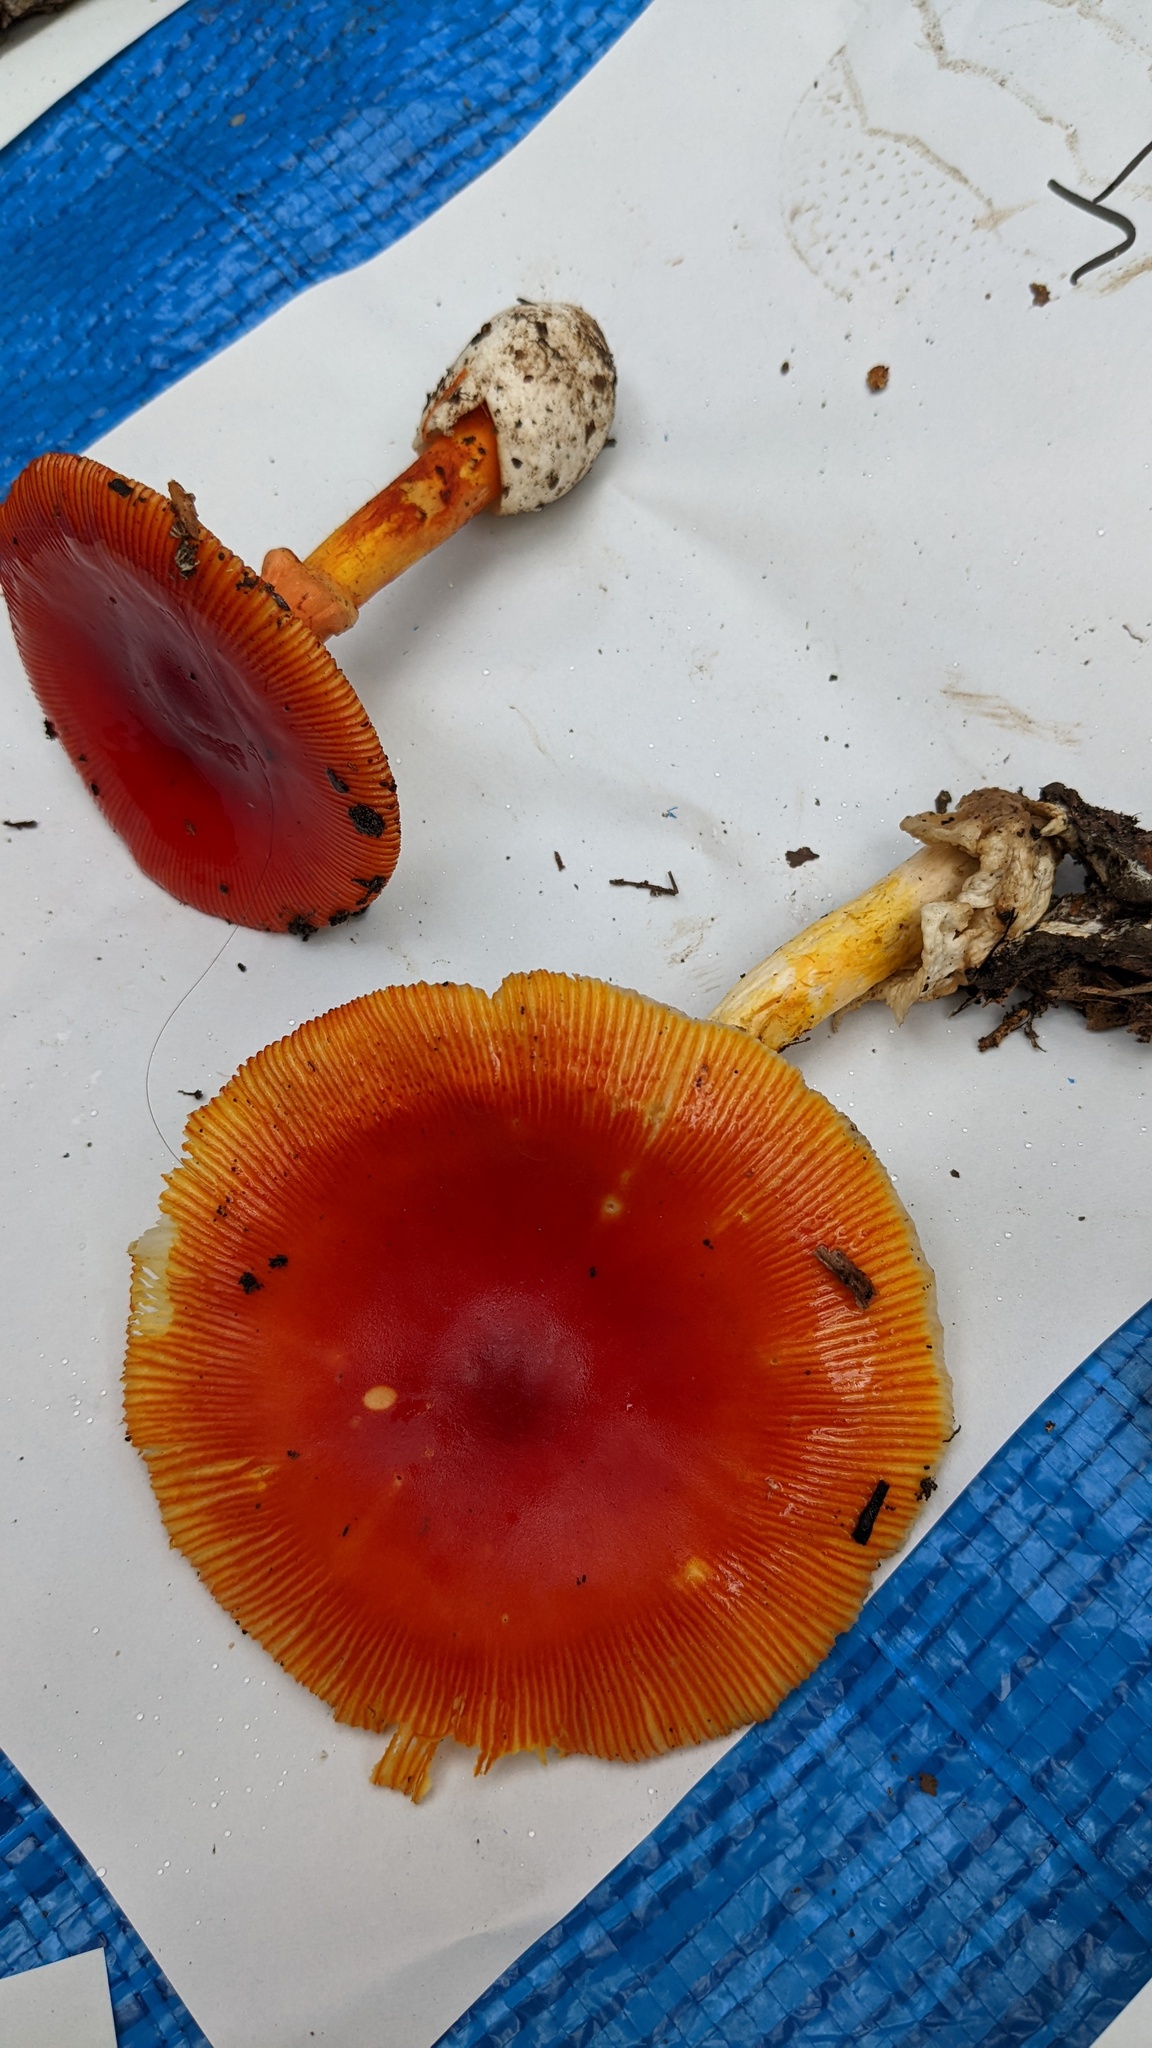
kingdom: Fungi
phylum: Basidiomycota
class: Agaricomycetes
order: Agaricales
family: Amanitaceae
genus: Amanita
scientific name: Amanita caesareoides
